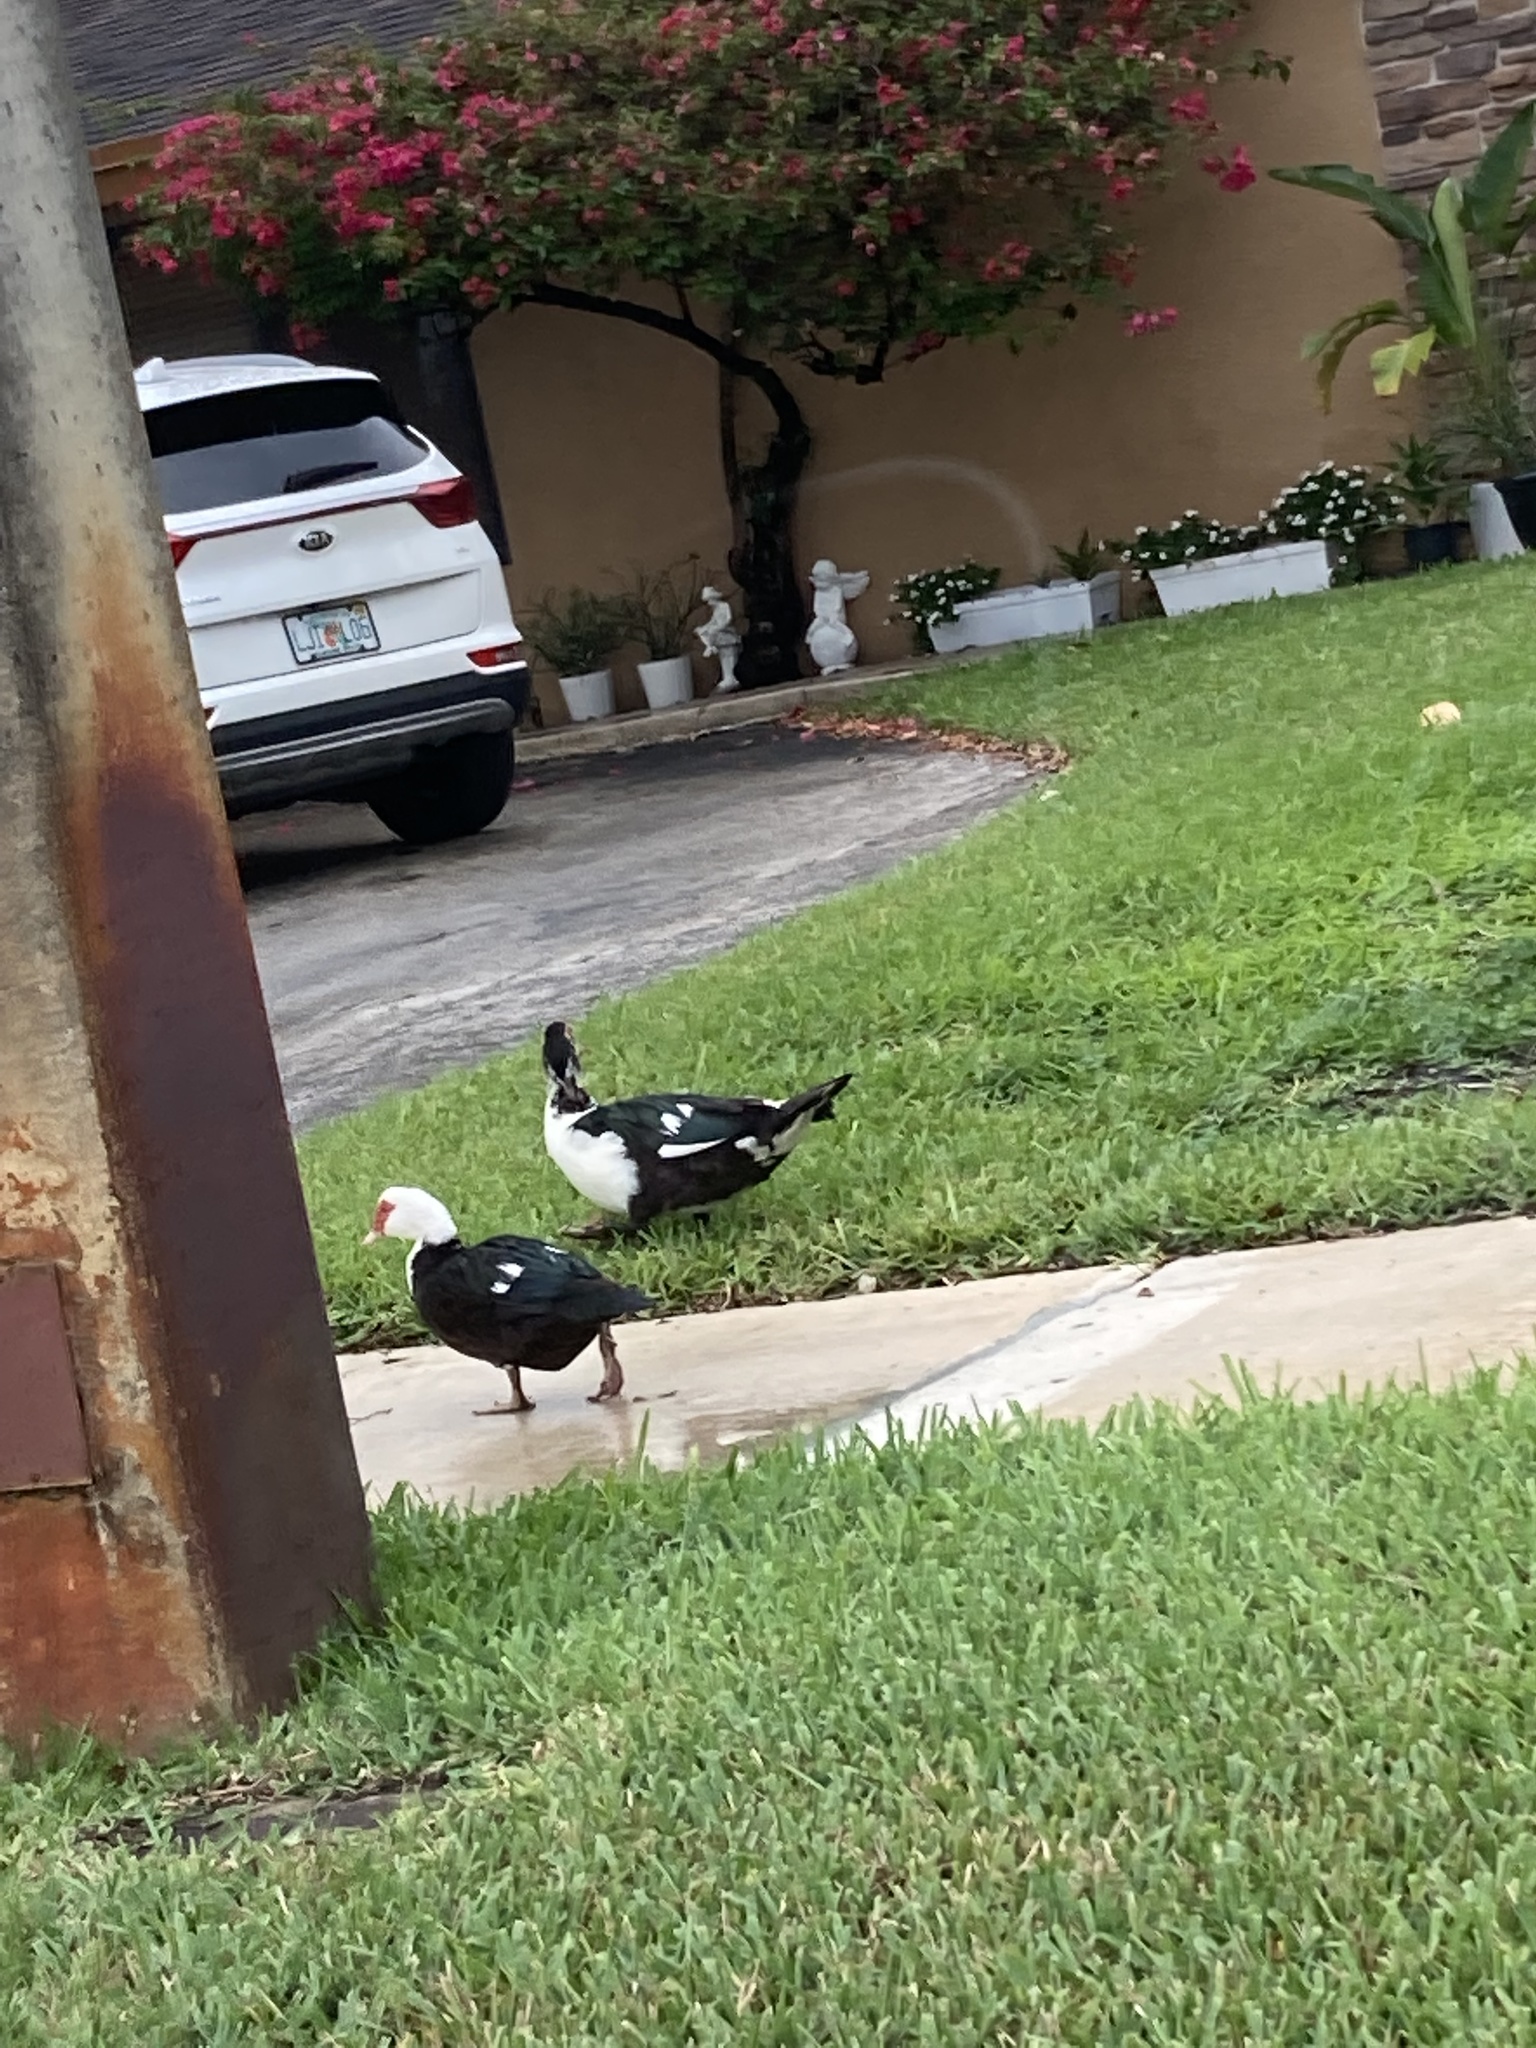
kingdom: Animalia
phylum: Chordata
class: Aves
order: Anseriformes
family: Anatidae
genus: Cairina
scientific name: Cairina moschata
